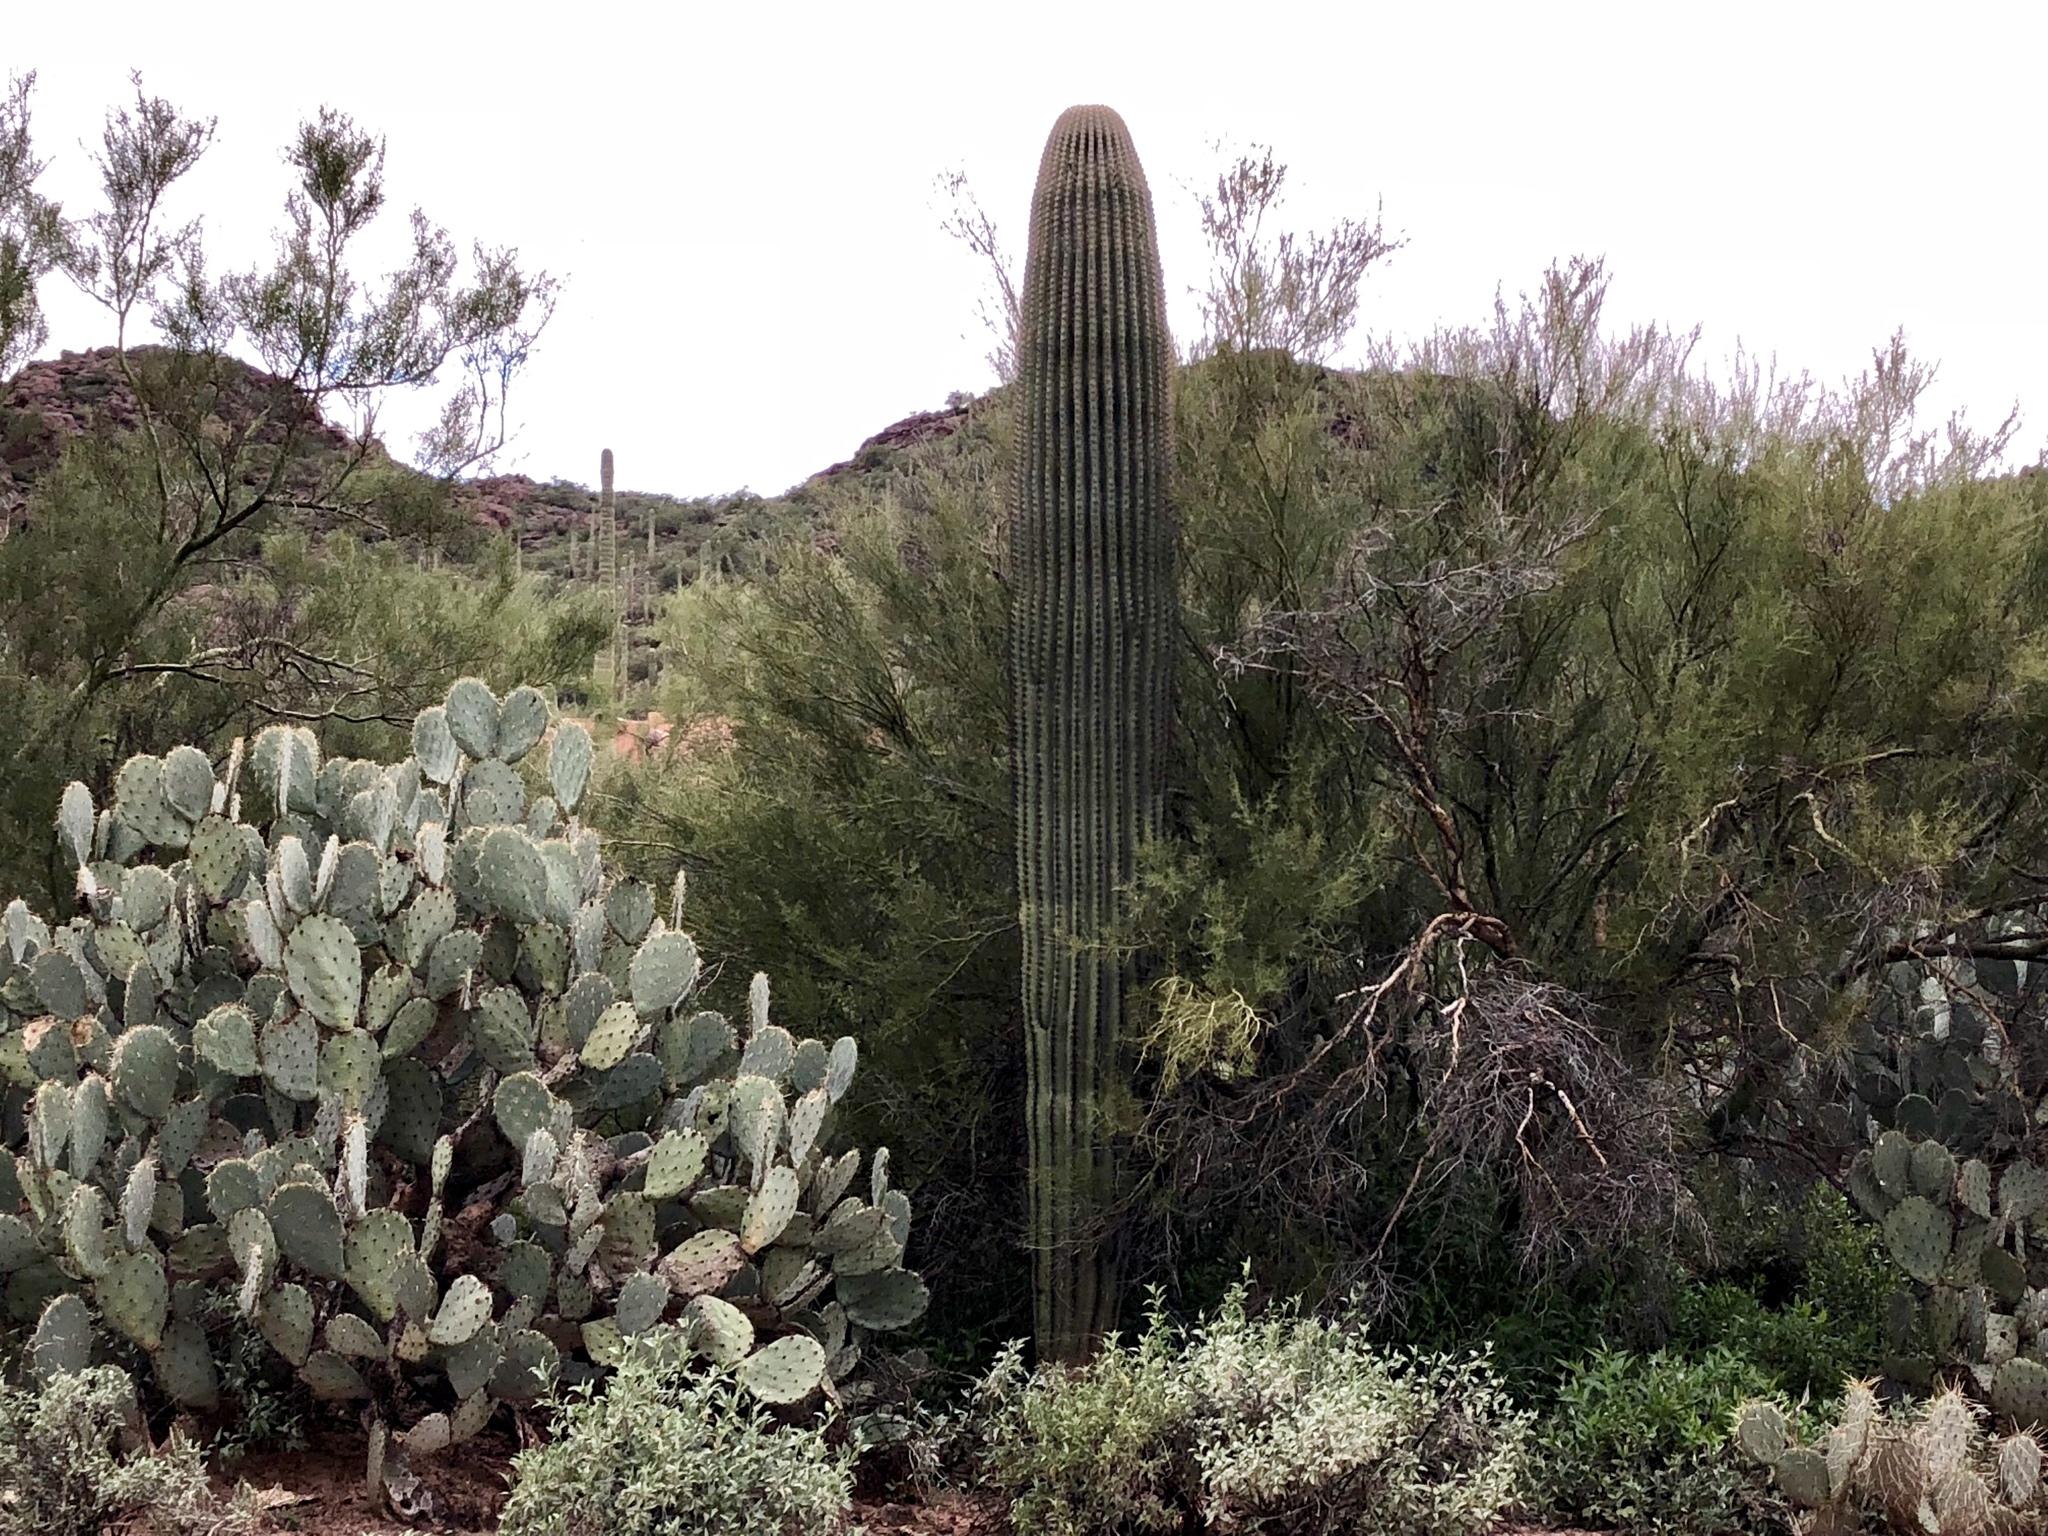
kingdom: Plantae
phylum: Tracheophyta
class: Magnoliopsida
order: Caryophyllales
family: Cactaceae
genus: Carnegiea
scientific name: Carnegiea gigantea
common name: Saguaro
